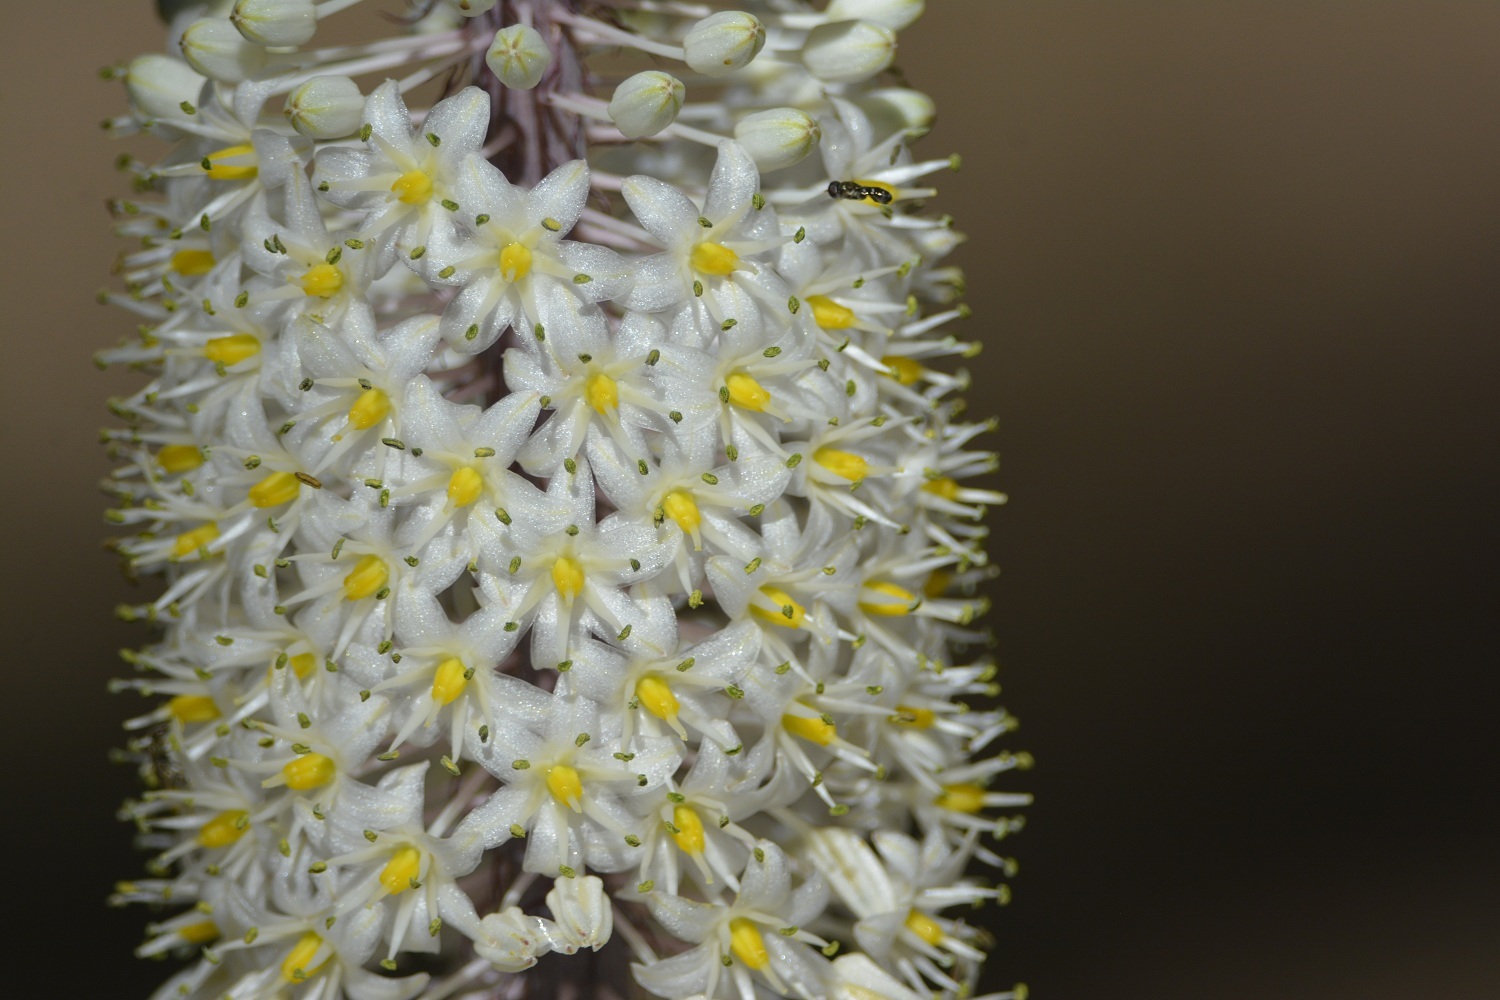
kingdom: Plantae
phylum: Tracheophyta
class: Liliopsida
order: Asparagales
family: Asparagaceae
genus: Drimia
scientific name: Drimia numidica
